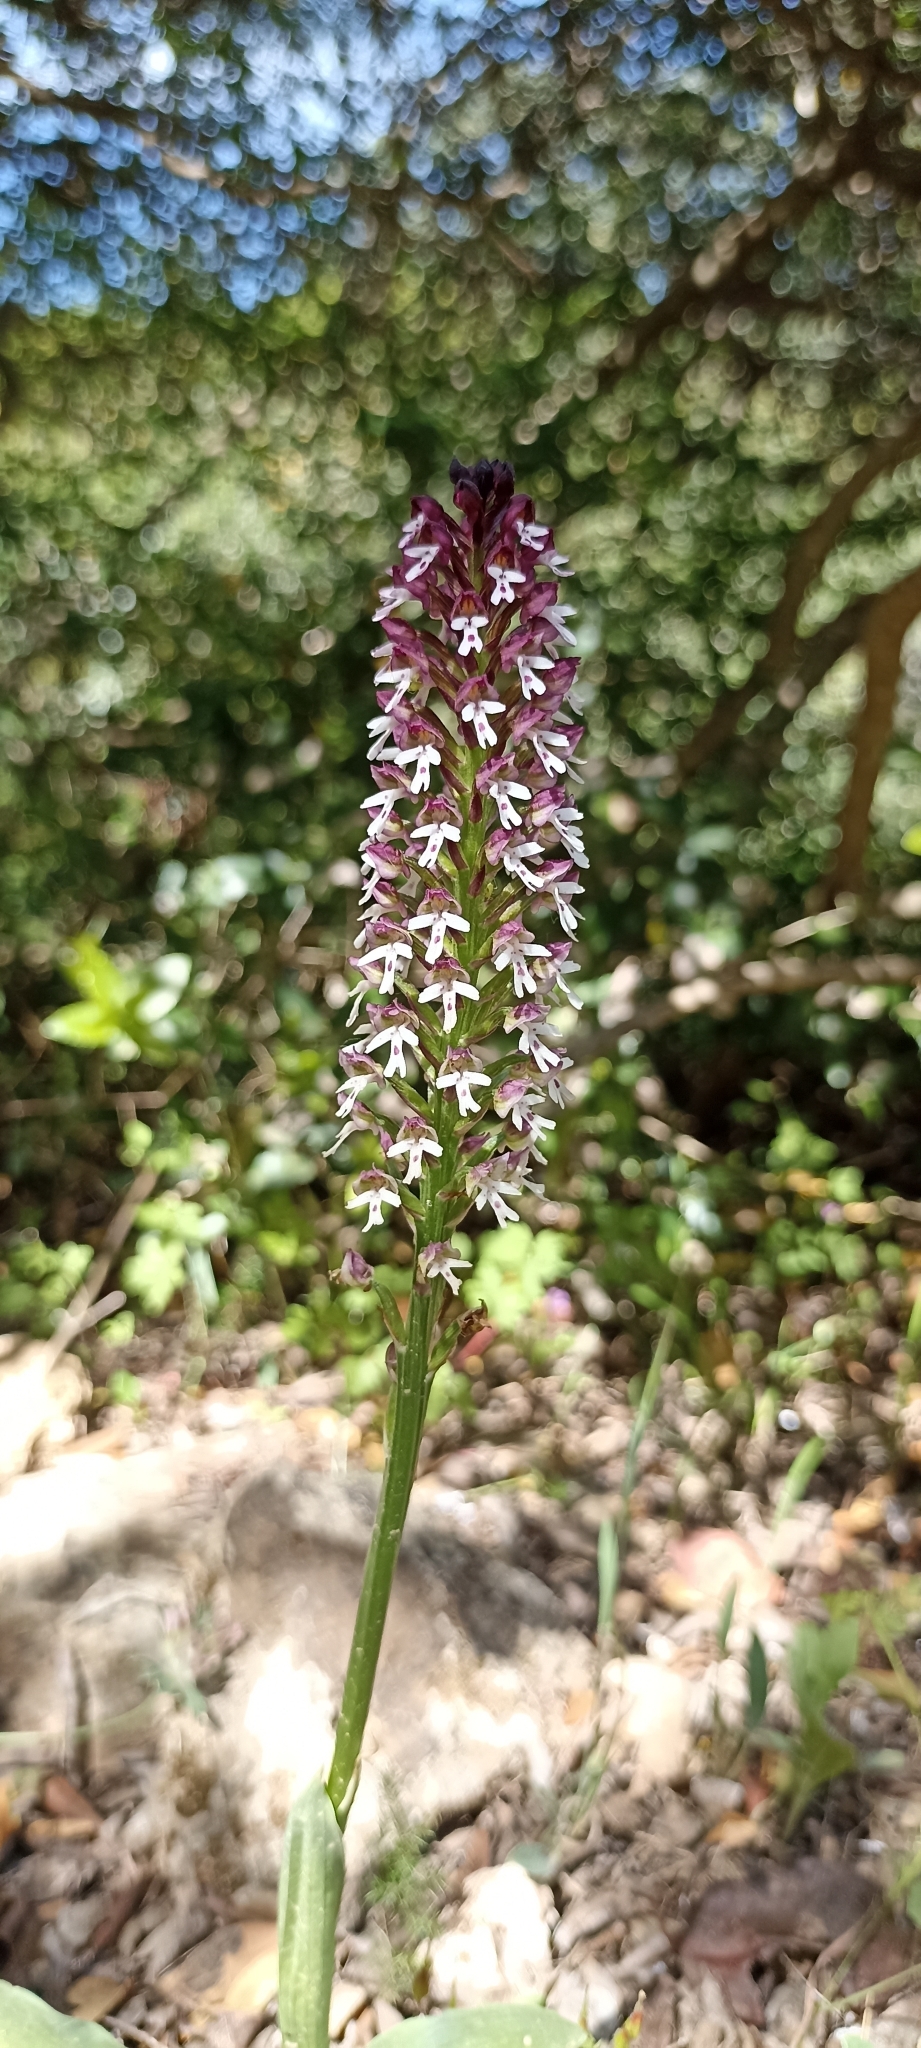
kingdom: Plantae
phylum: Tracheophyta
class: Liliopsida
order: Asparagales
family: Orchidaceae
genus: Neotinea
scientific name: Neotinea ustulata
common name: Burnt orchid
